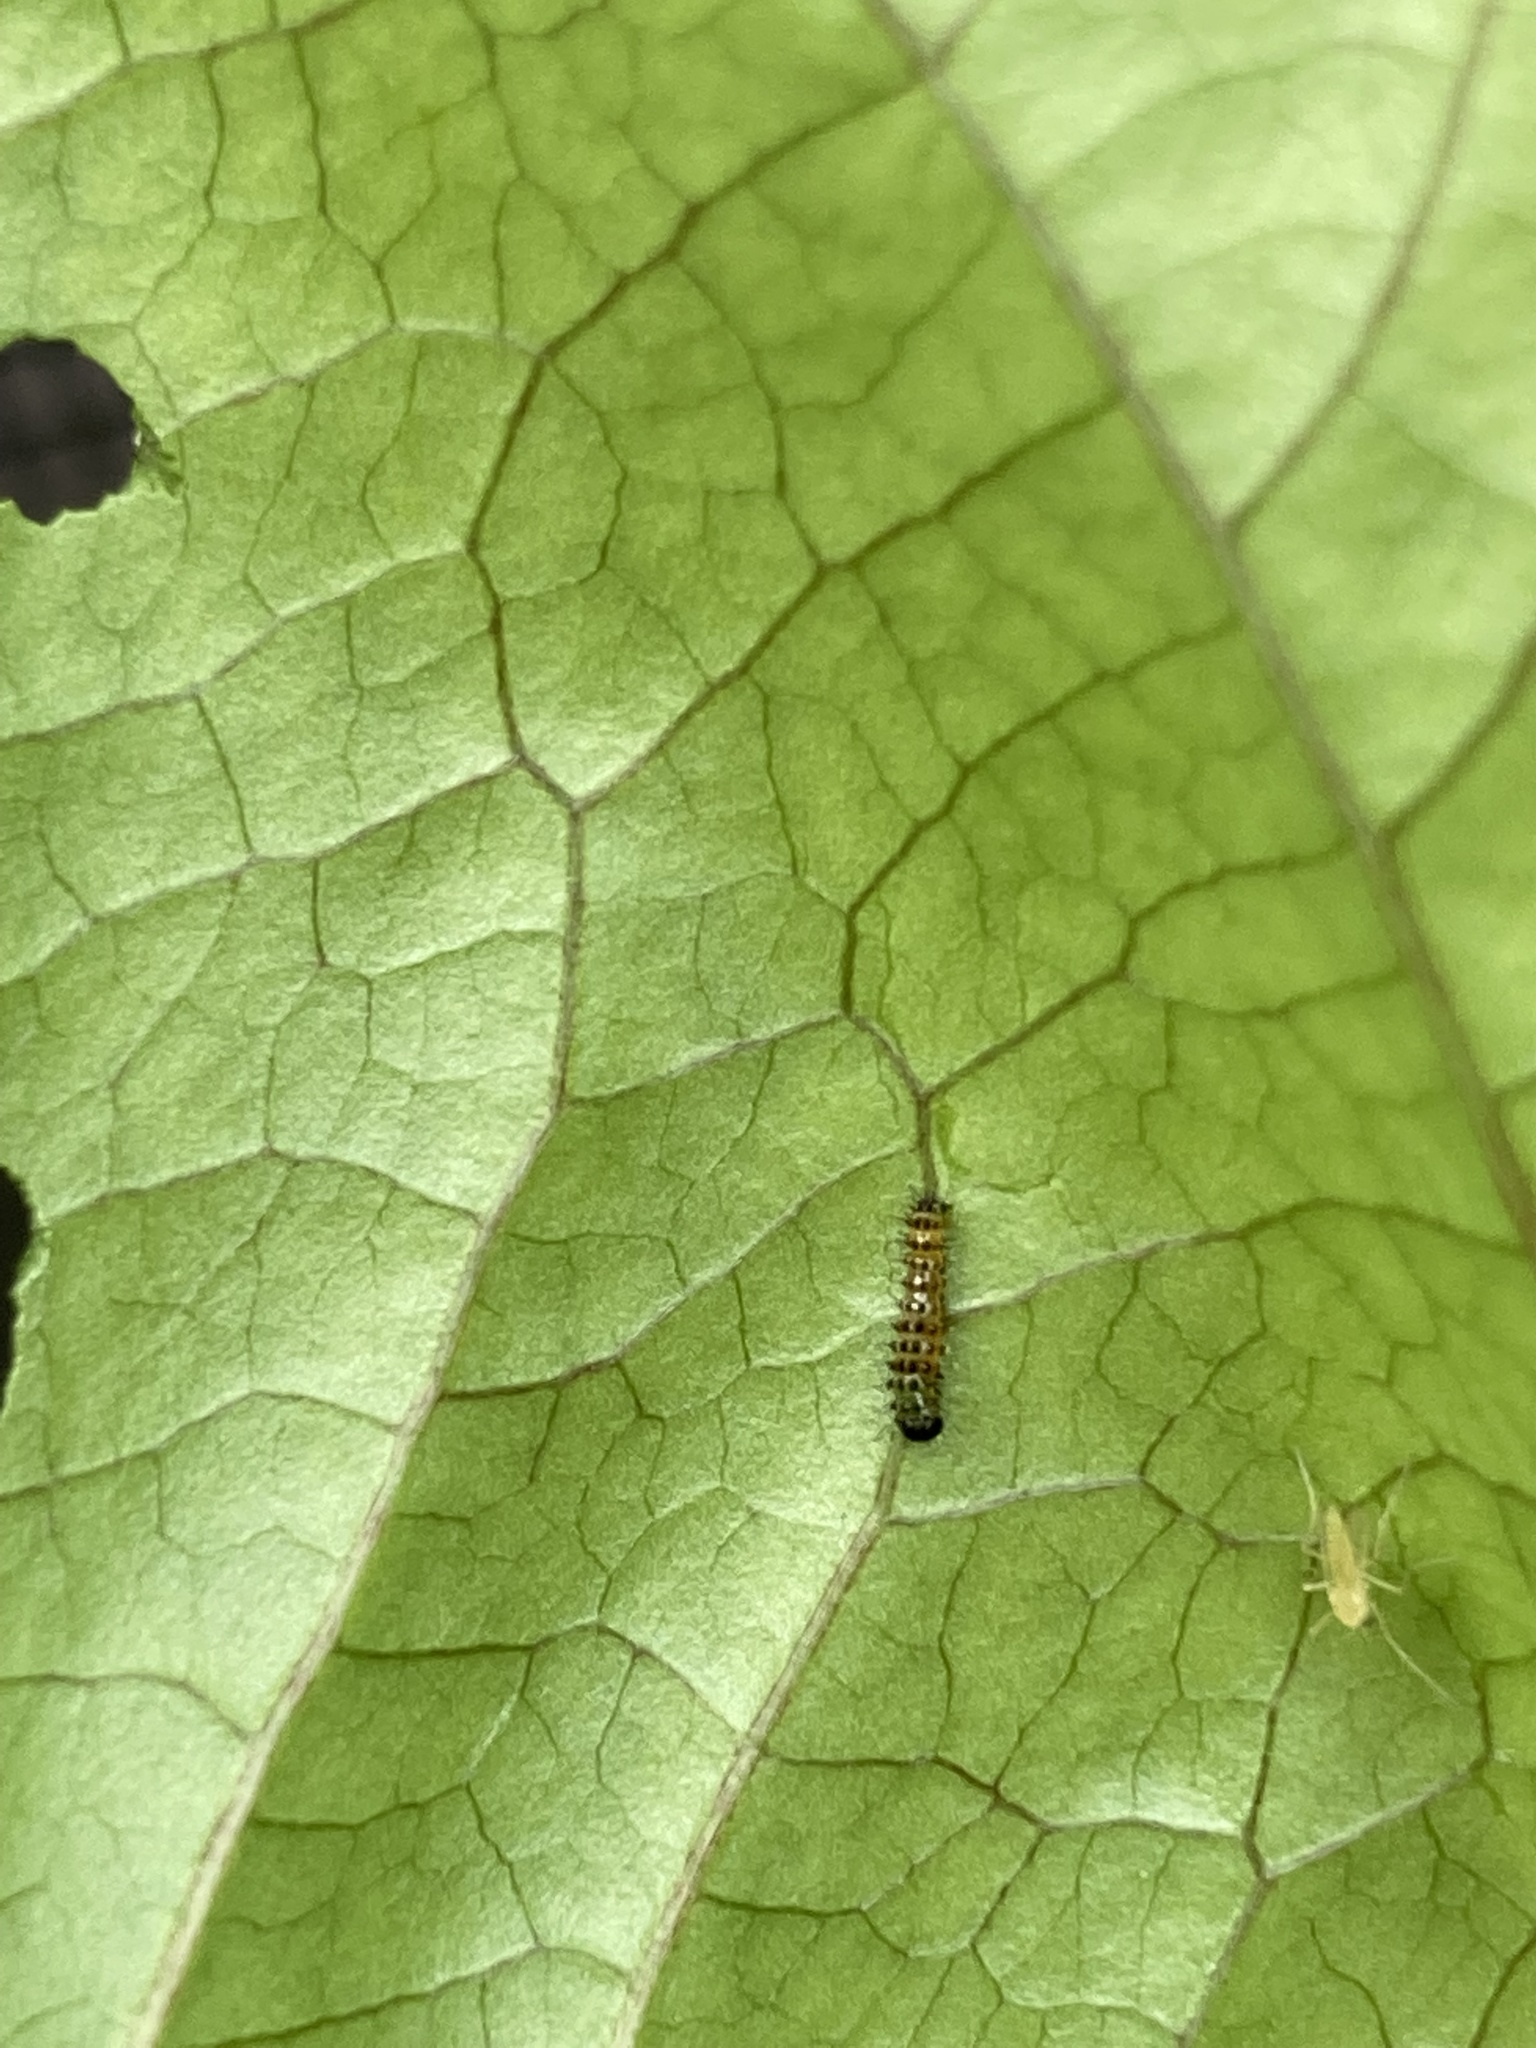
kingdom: Animalia
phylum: Arthropoda
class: Insecta
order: Lepidoptera
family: Nymphalidae
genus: Dione
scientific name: Dione vanillae
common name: Gulf fritillary
